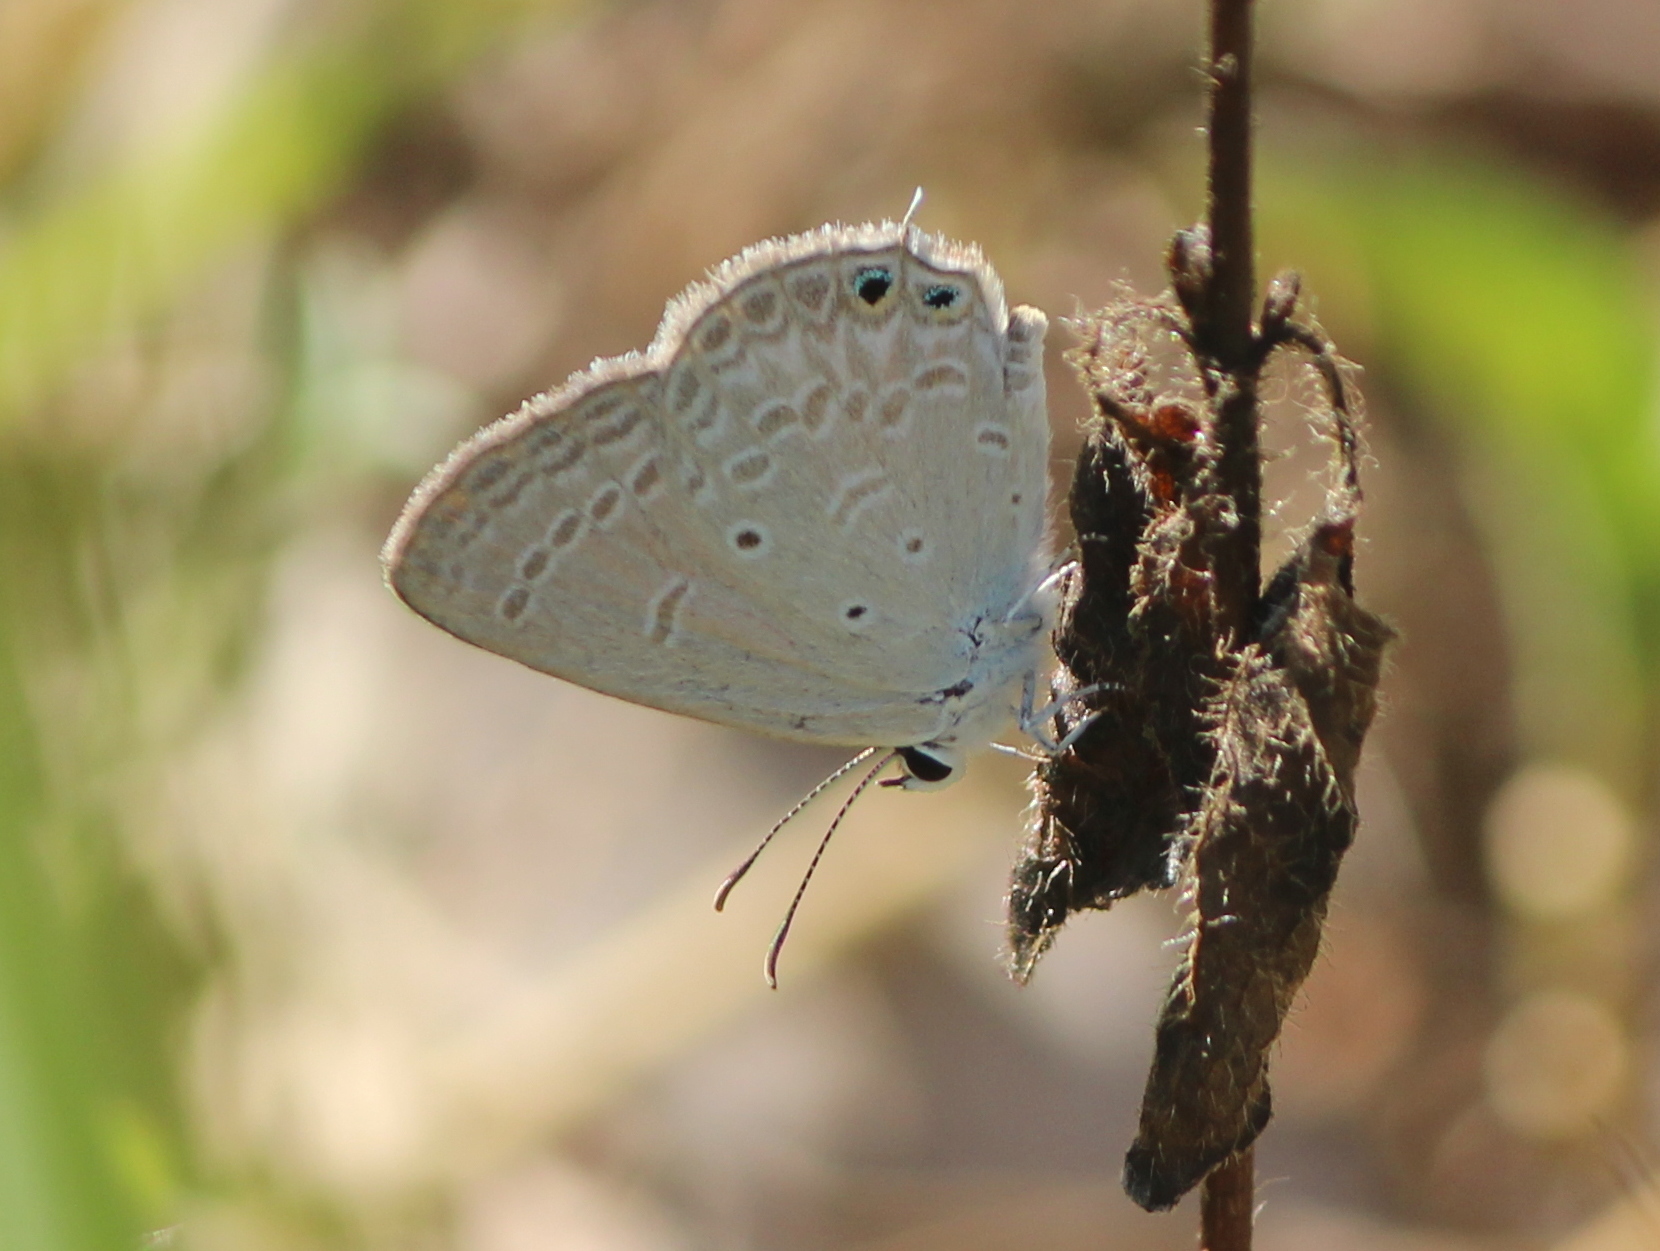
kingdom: Animalia
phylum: Arthropoda
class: Insecta
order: Lepidoptera
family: Lycaenidae
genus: Euchrysops
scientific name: Euchrysops cnejus
